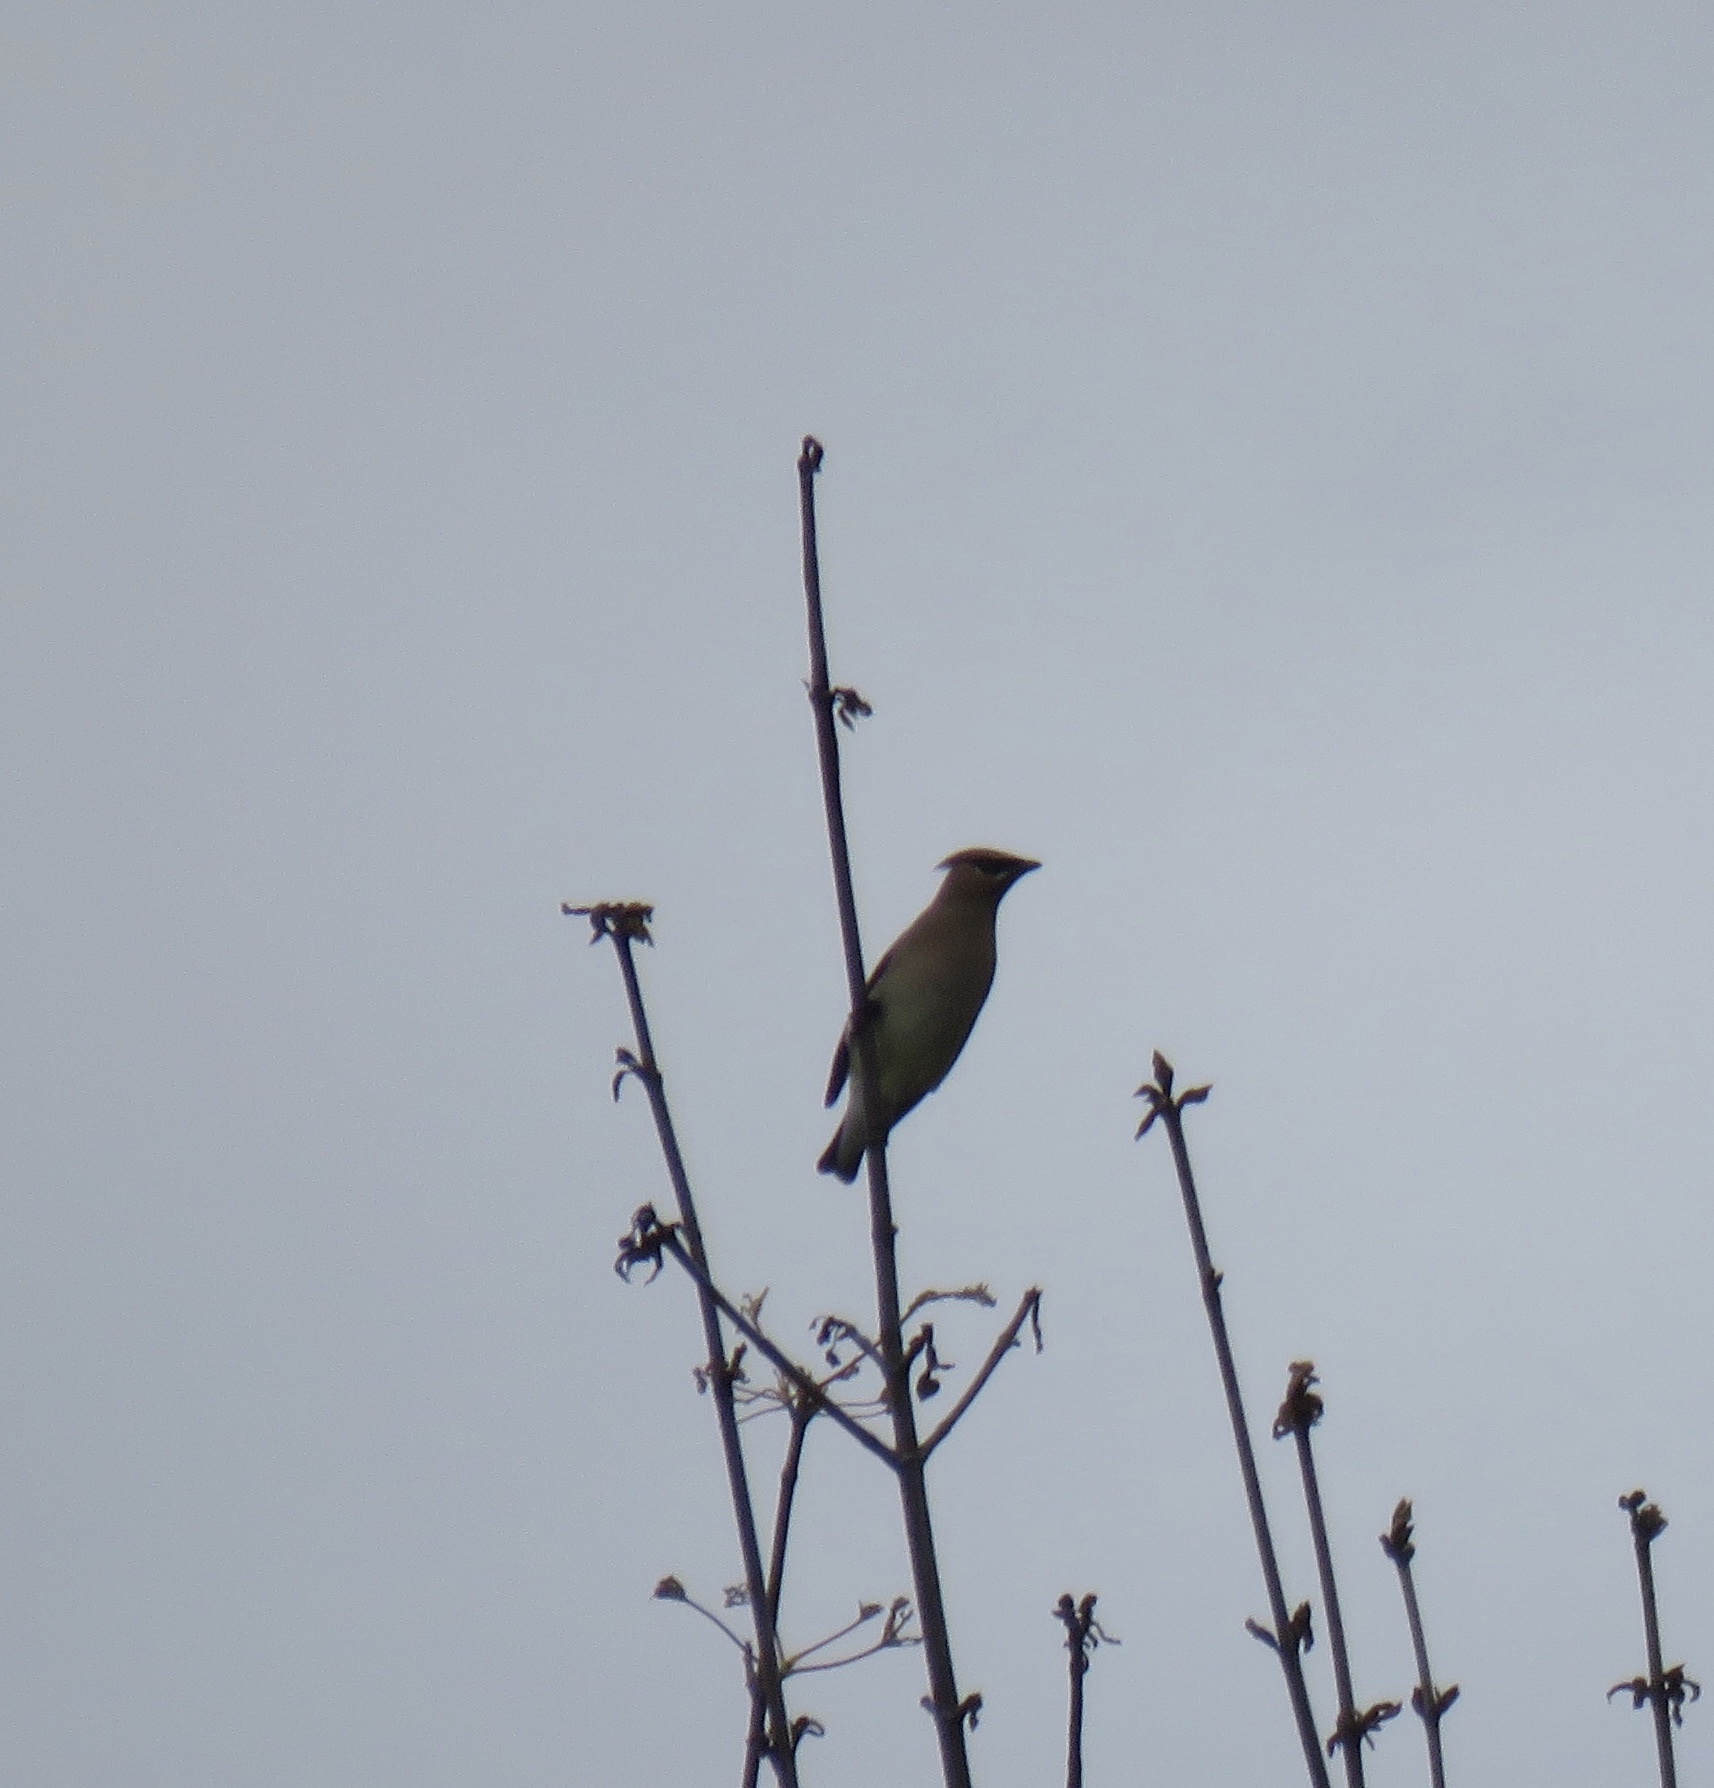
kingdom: Animalia
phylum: Chordata
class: Aves
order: Passeriformes
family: Bombycillidae
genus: Bombycilla
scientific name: Bombycilla cedrorum
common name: Cedar waxwing
